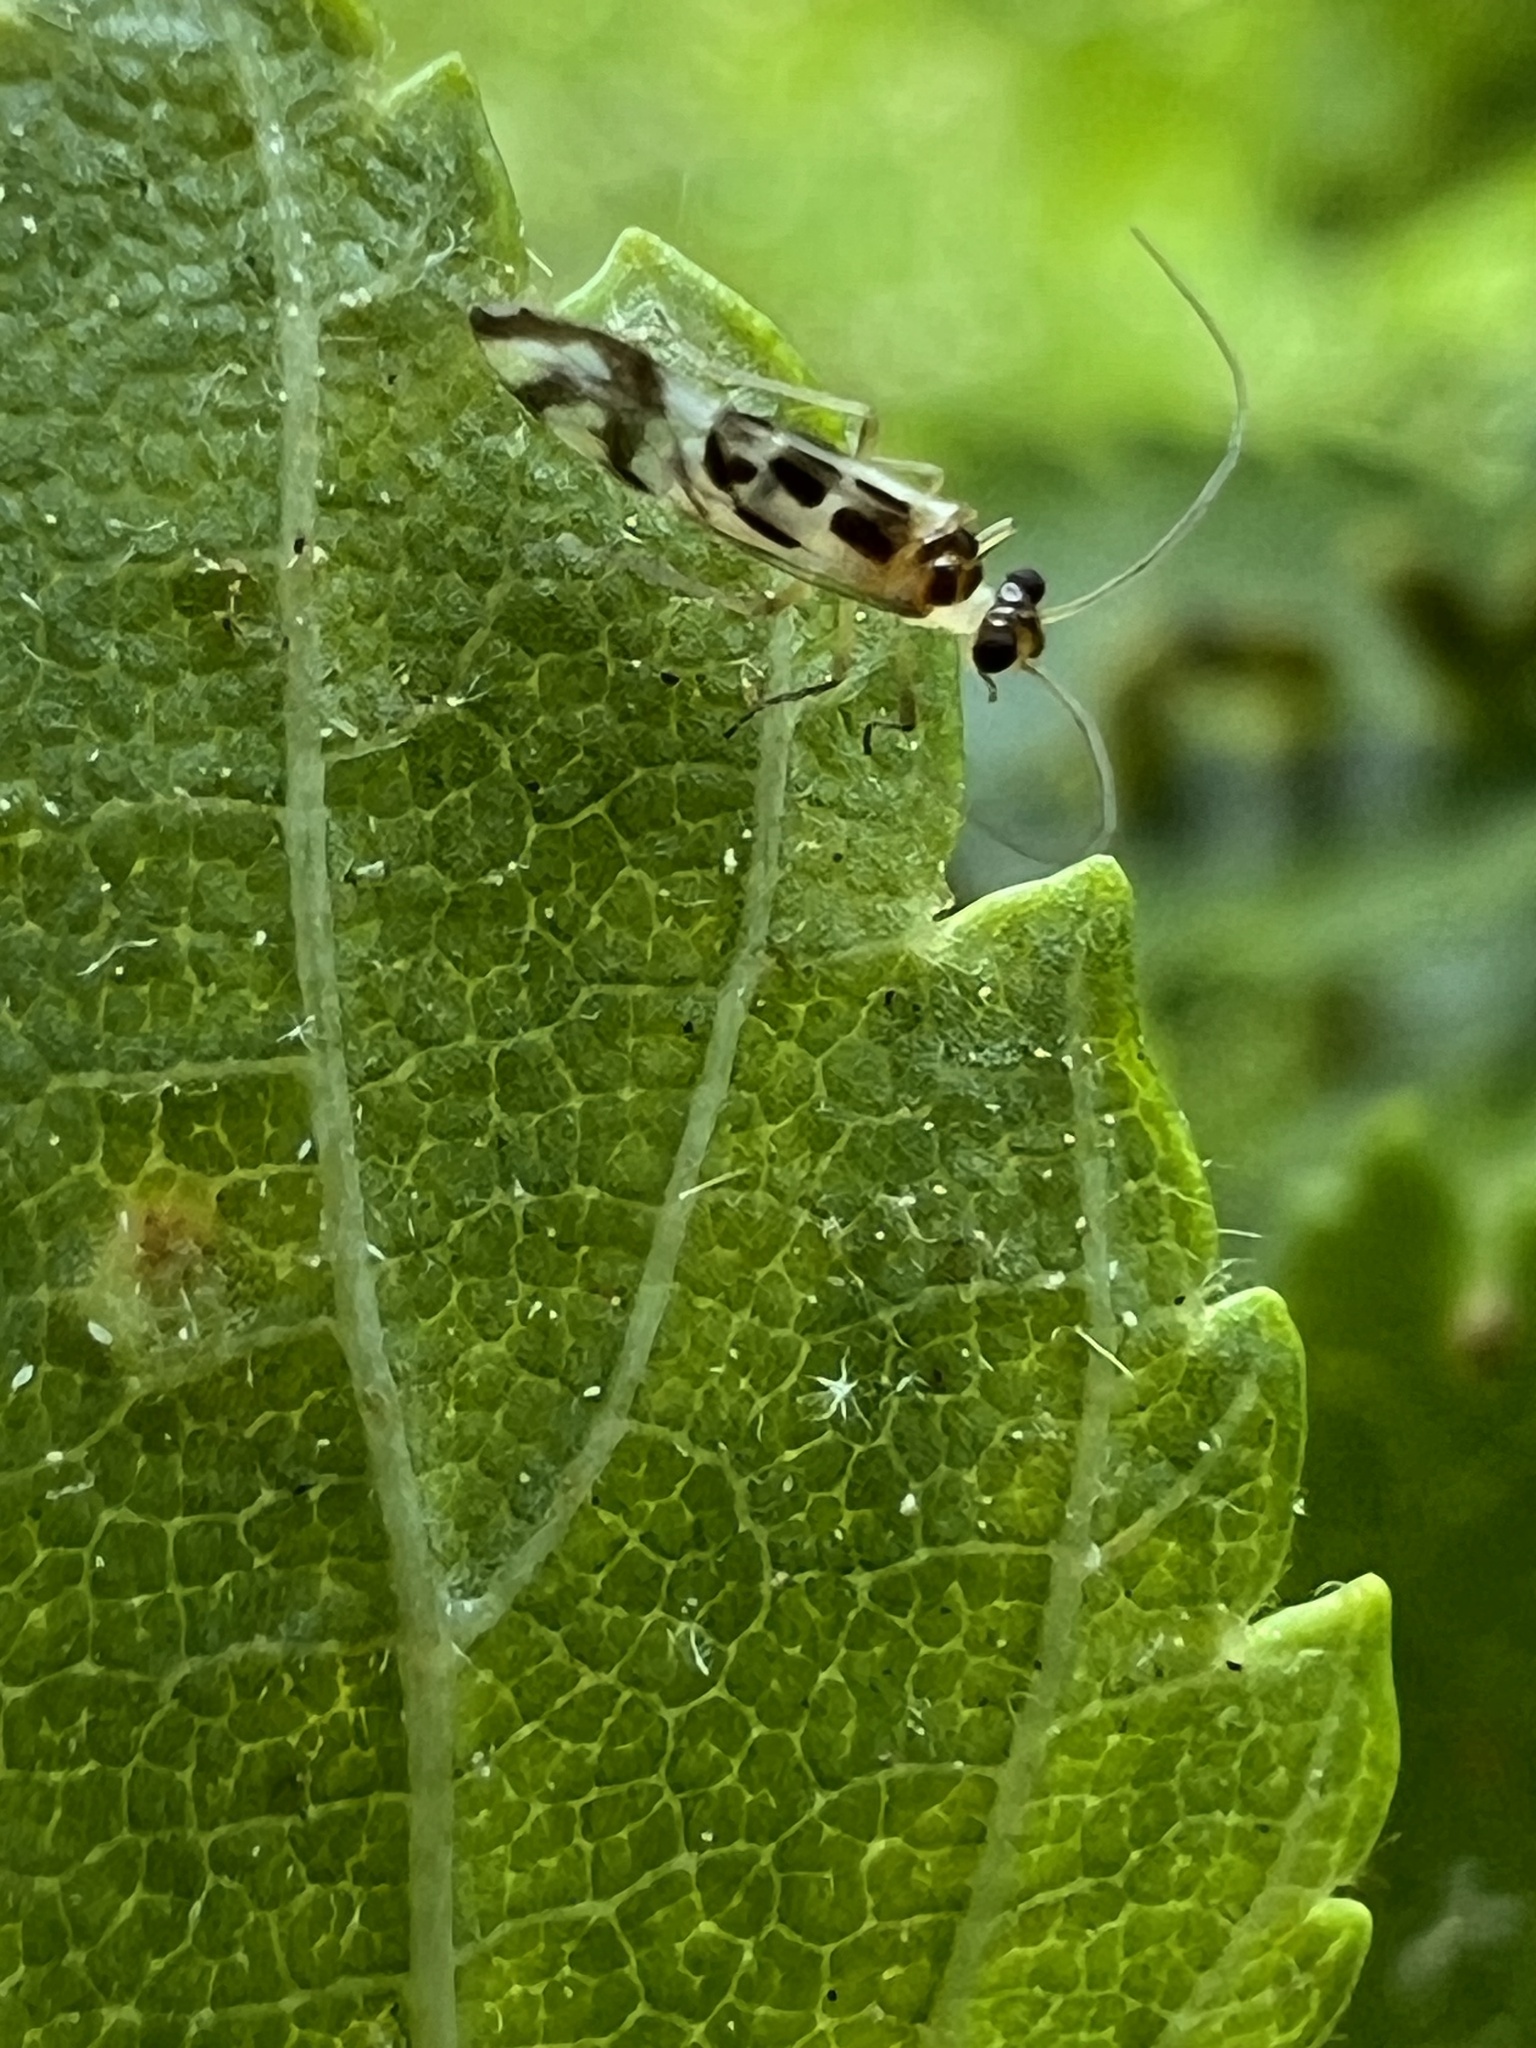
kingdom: Animalia
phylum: Arthropoda
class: Insecta
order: Psocodea
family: Stenopsocidae
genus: Graphopsocus
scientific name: Graphopsocus cruciatus
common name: Lizard bark louse
